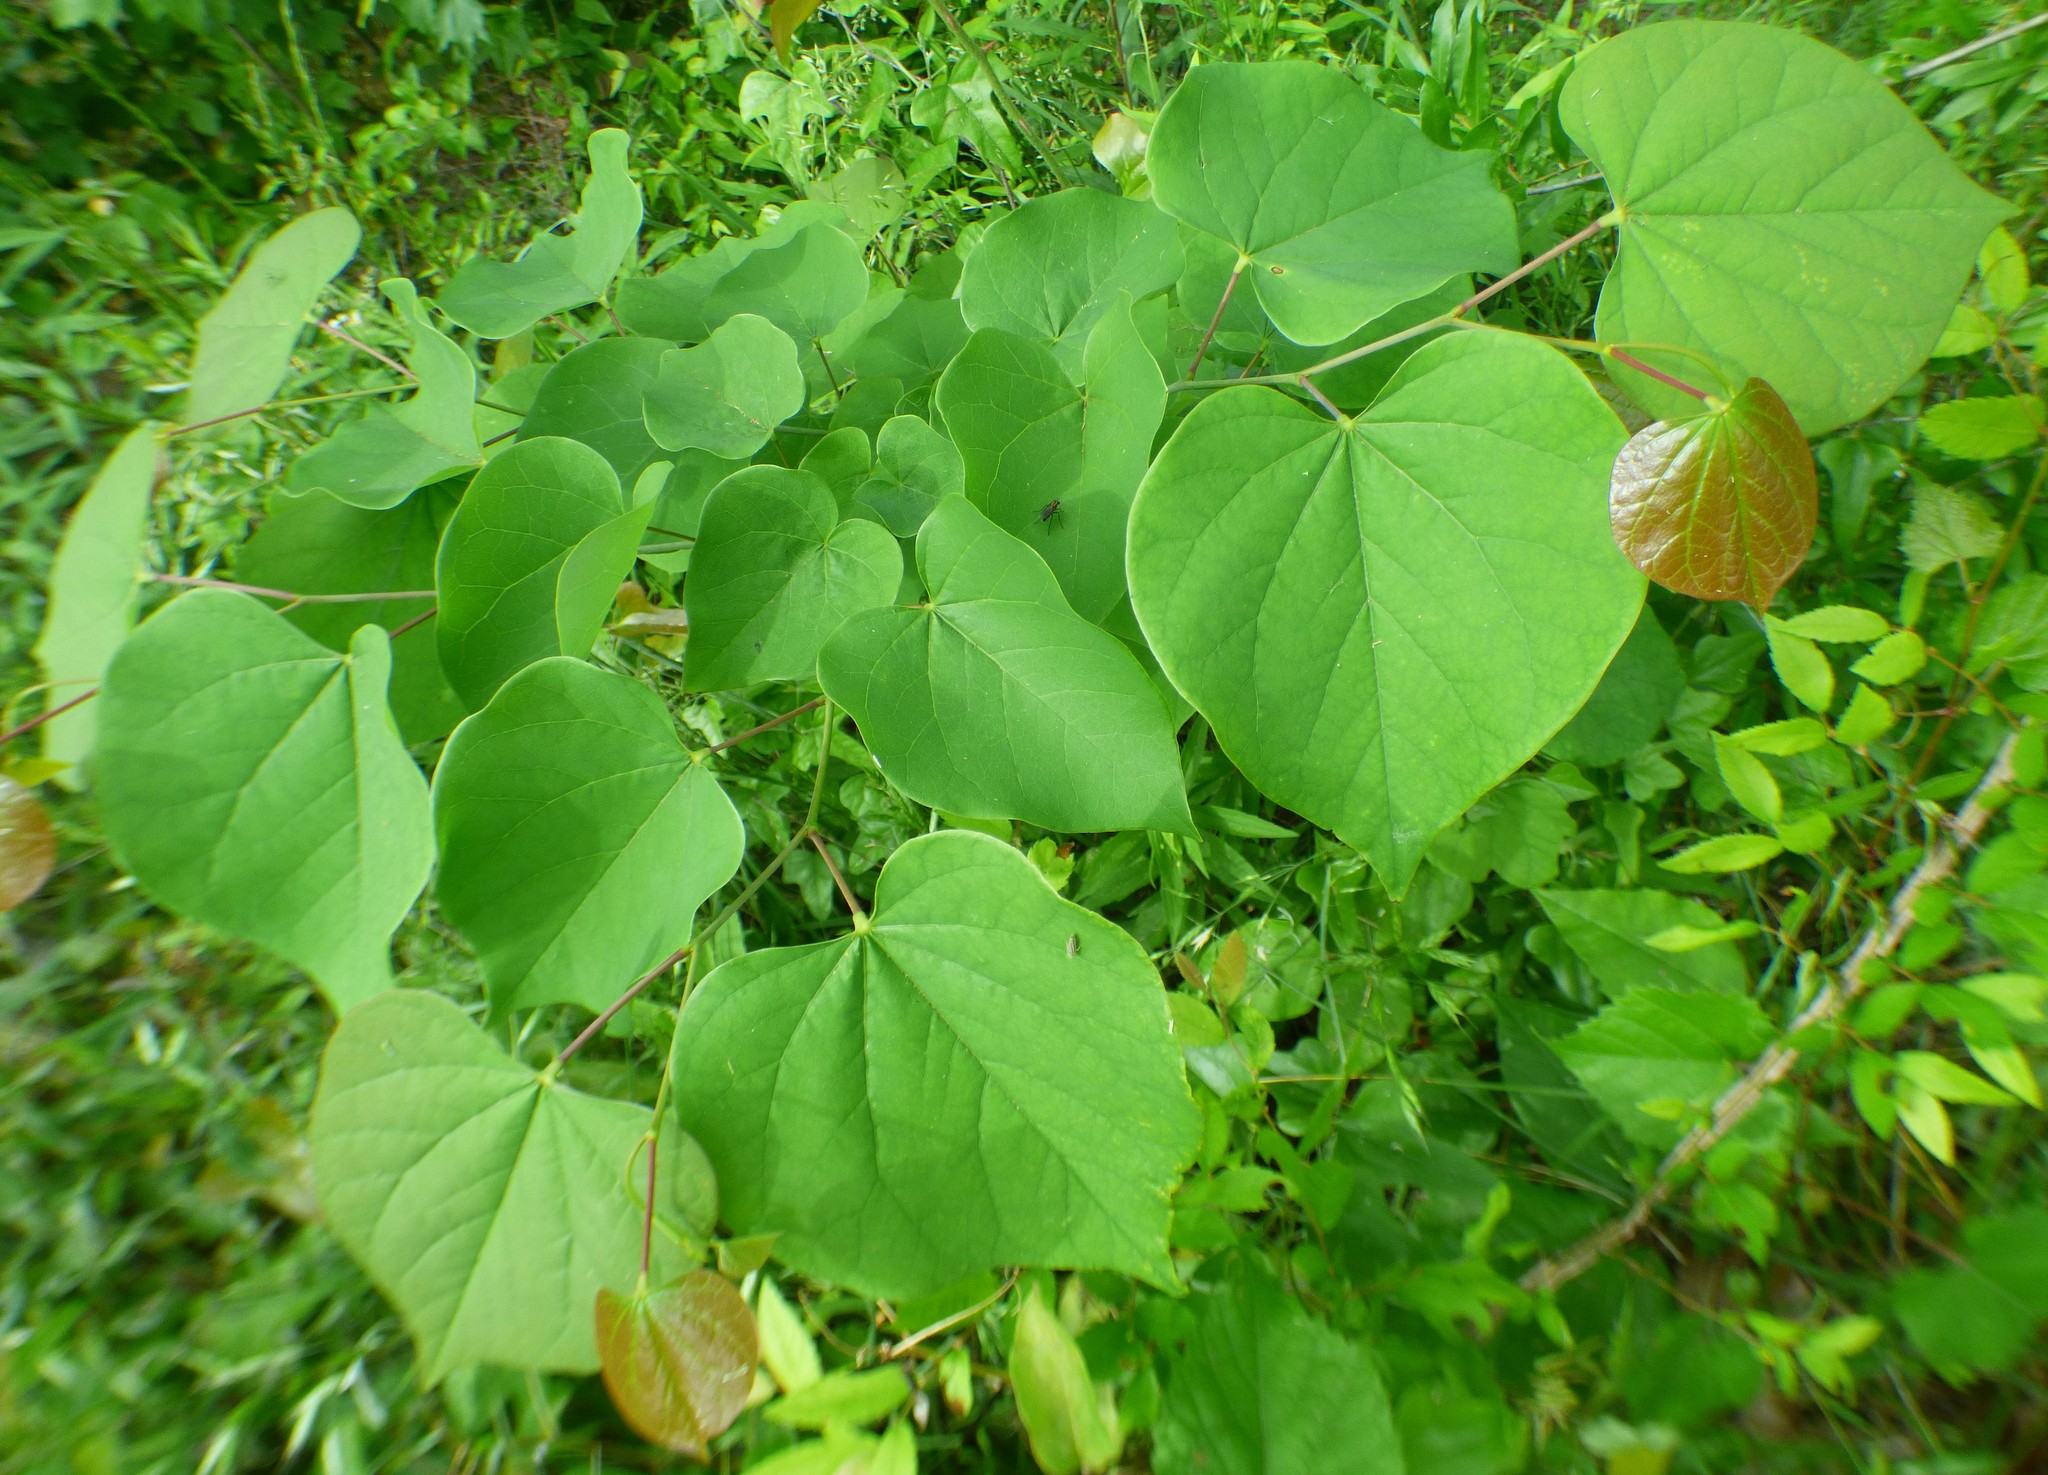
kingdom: Plantae
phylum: Tracheophyta
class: Magnoliopsida
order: Fabales
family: Fabaceae
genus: Cercis
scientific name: Cercis canadensis
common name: Eastern redbud
